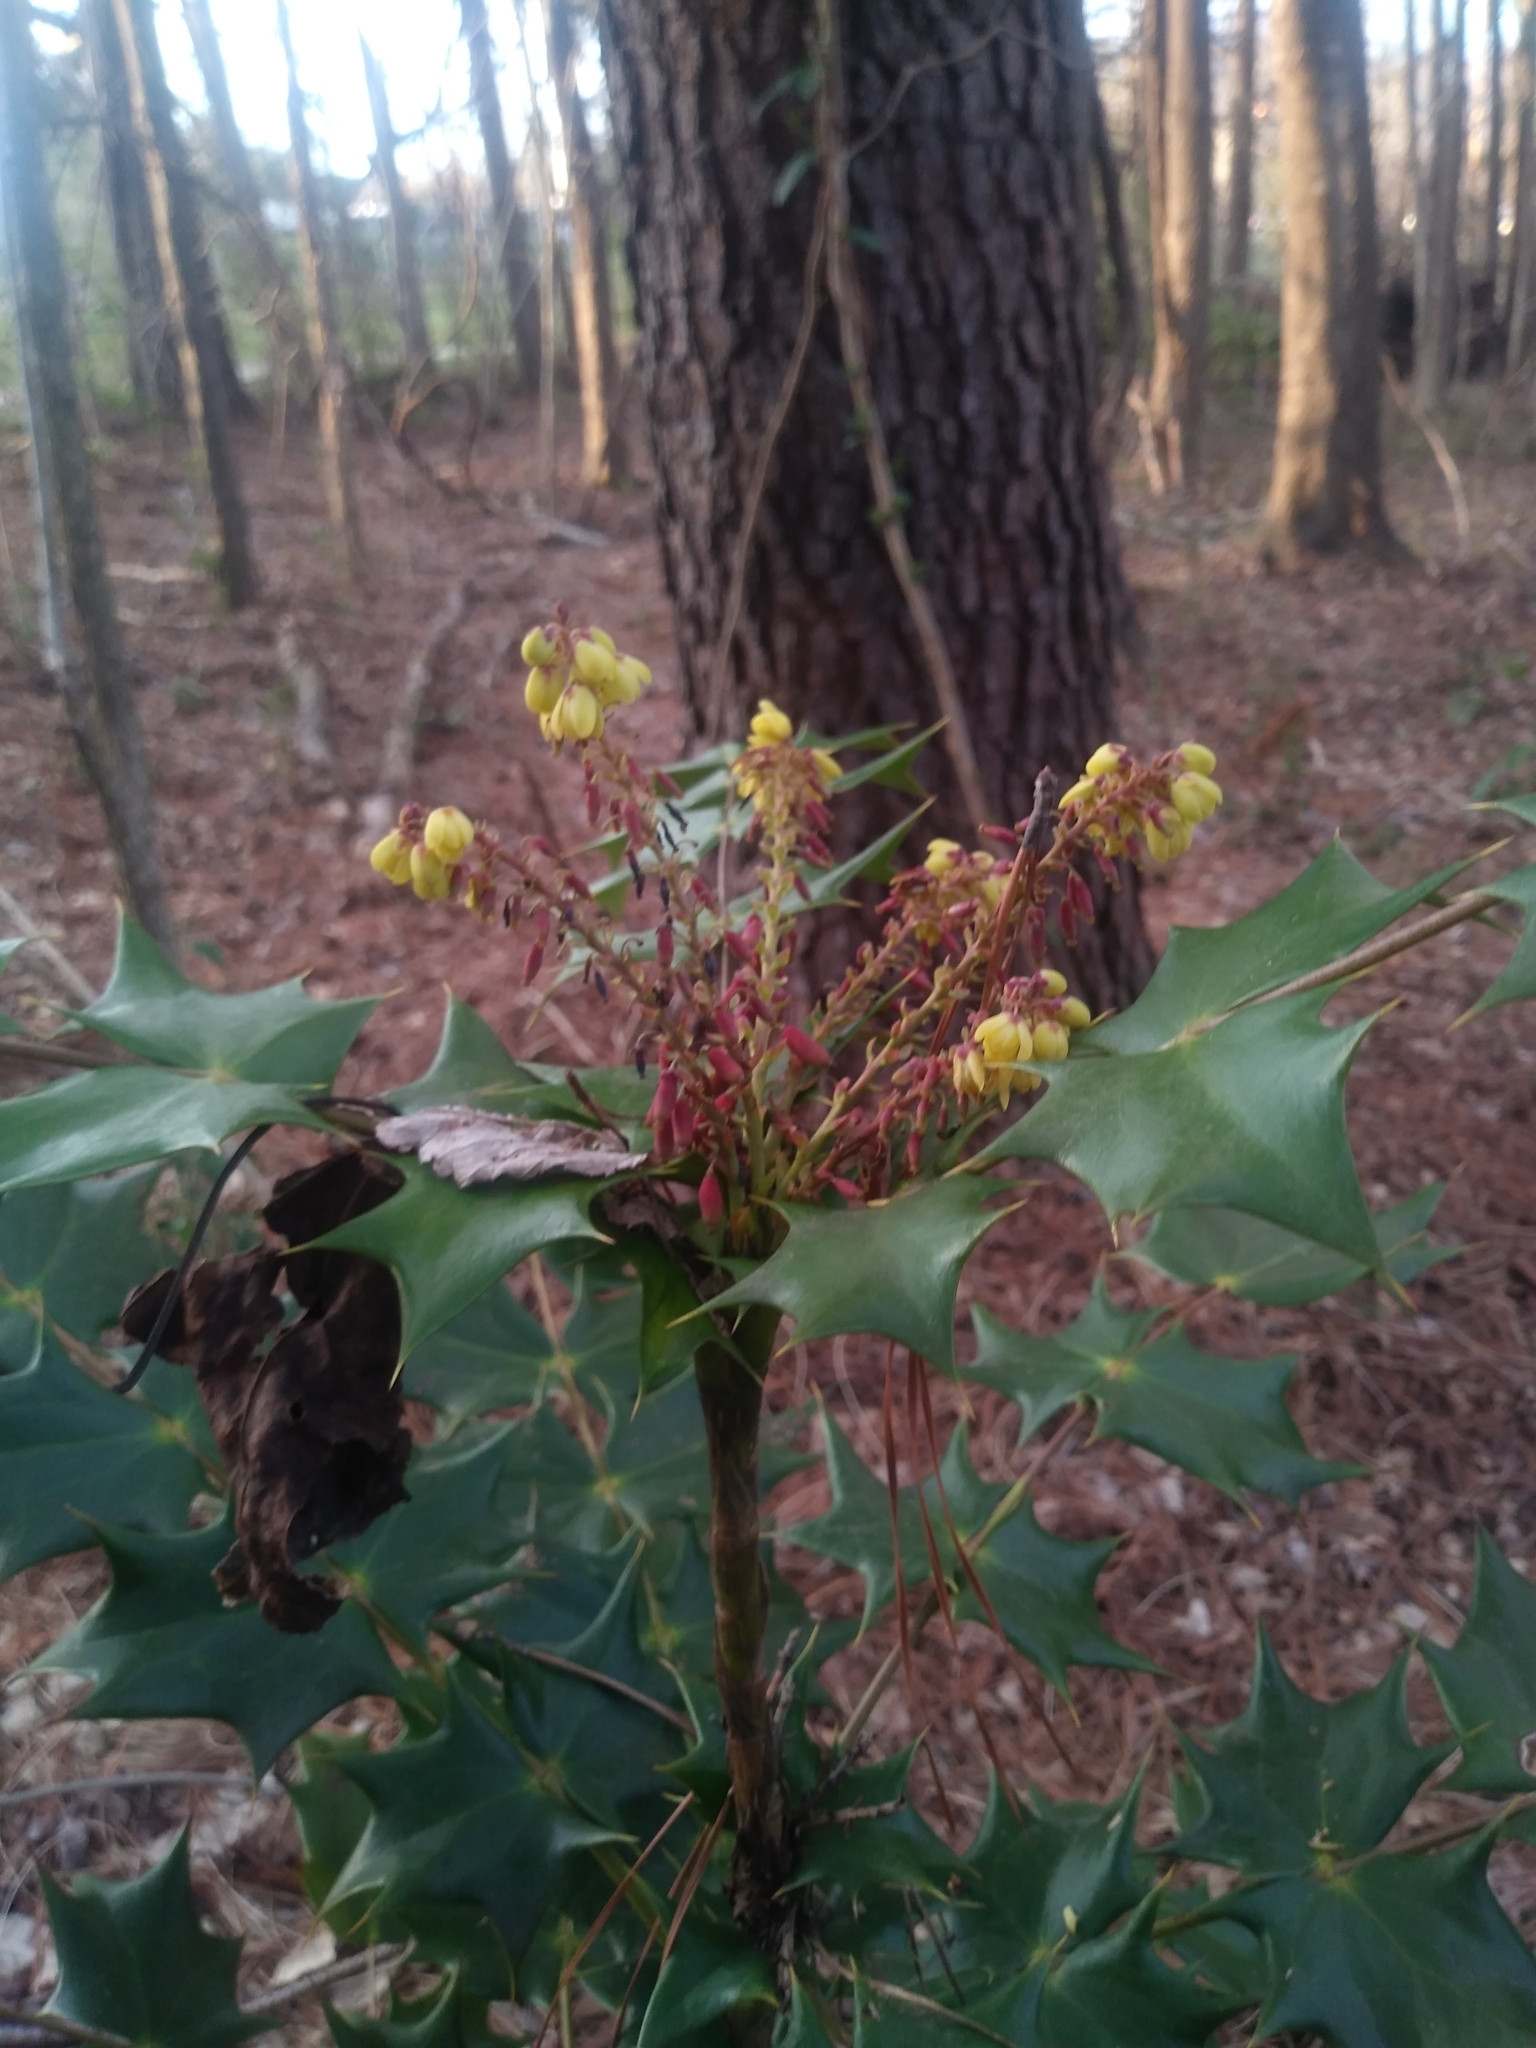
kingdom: Plantae
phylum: Tracheophyta
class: Magnoliopsida
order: Ranunculales
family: Berberidaceae
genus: Mahonia
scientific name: Mahonia bealei
